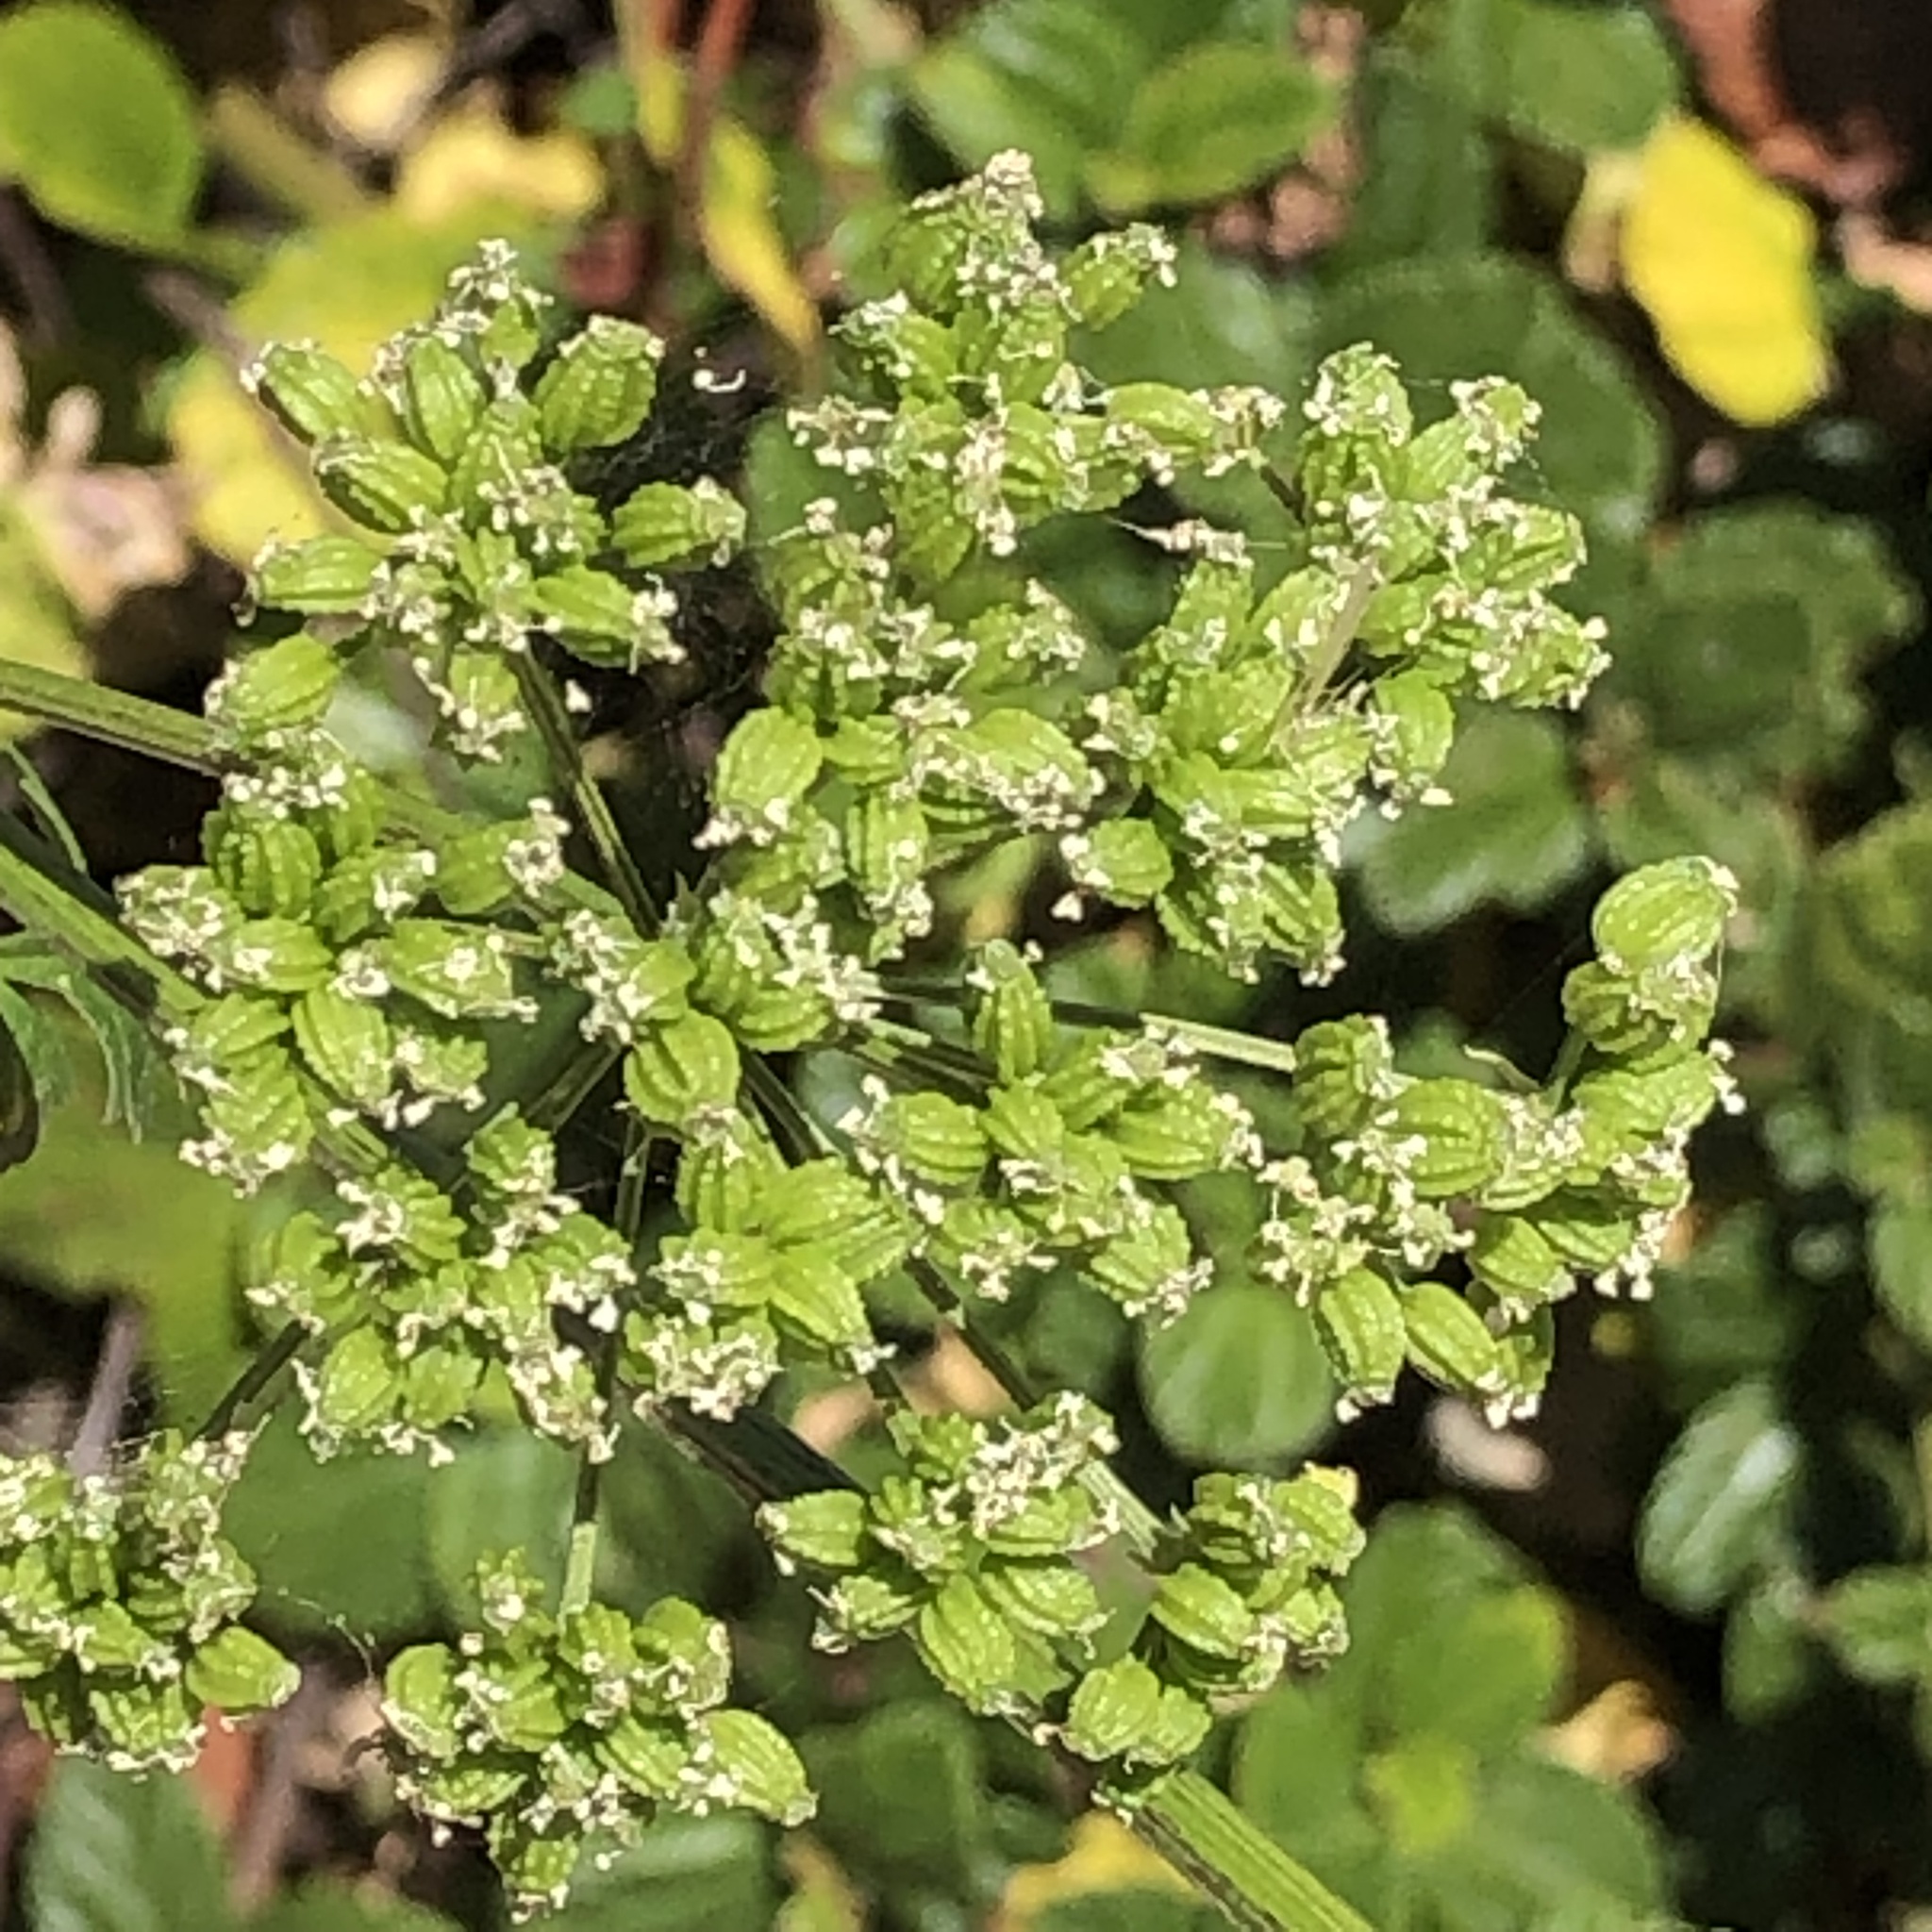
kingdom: Plantae
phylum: Tracheophyta
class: Magnoliopsida
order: Apiales
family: Apiaceae
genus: Conium
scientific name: Conium maculatum
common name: Hemlock
